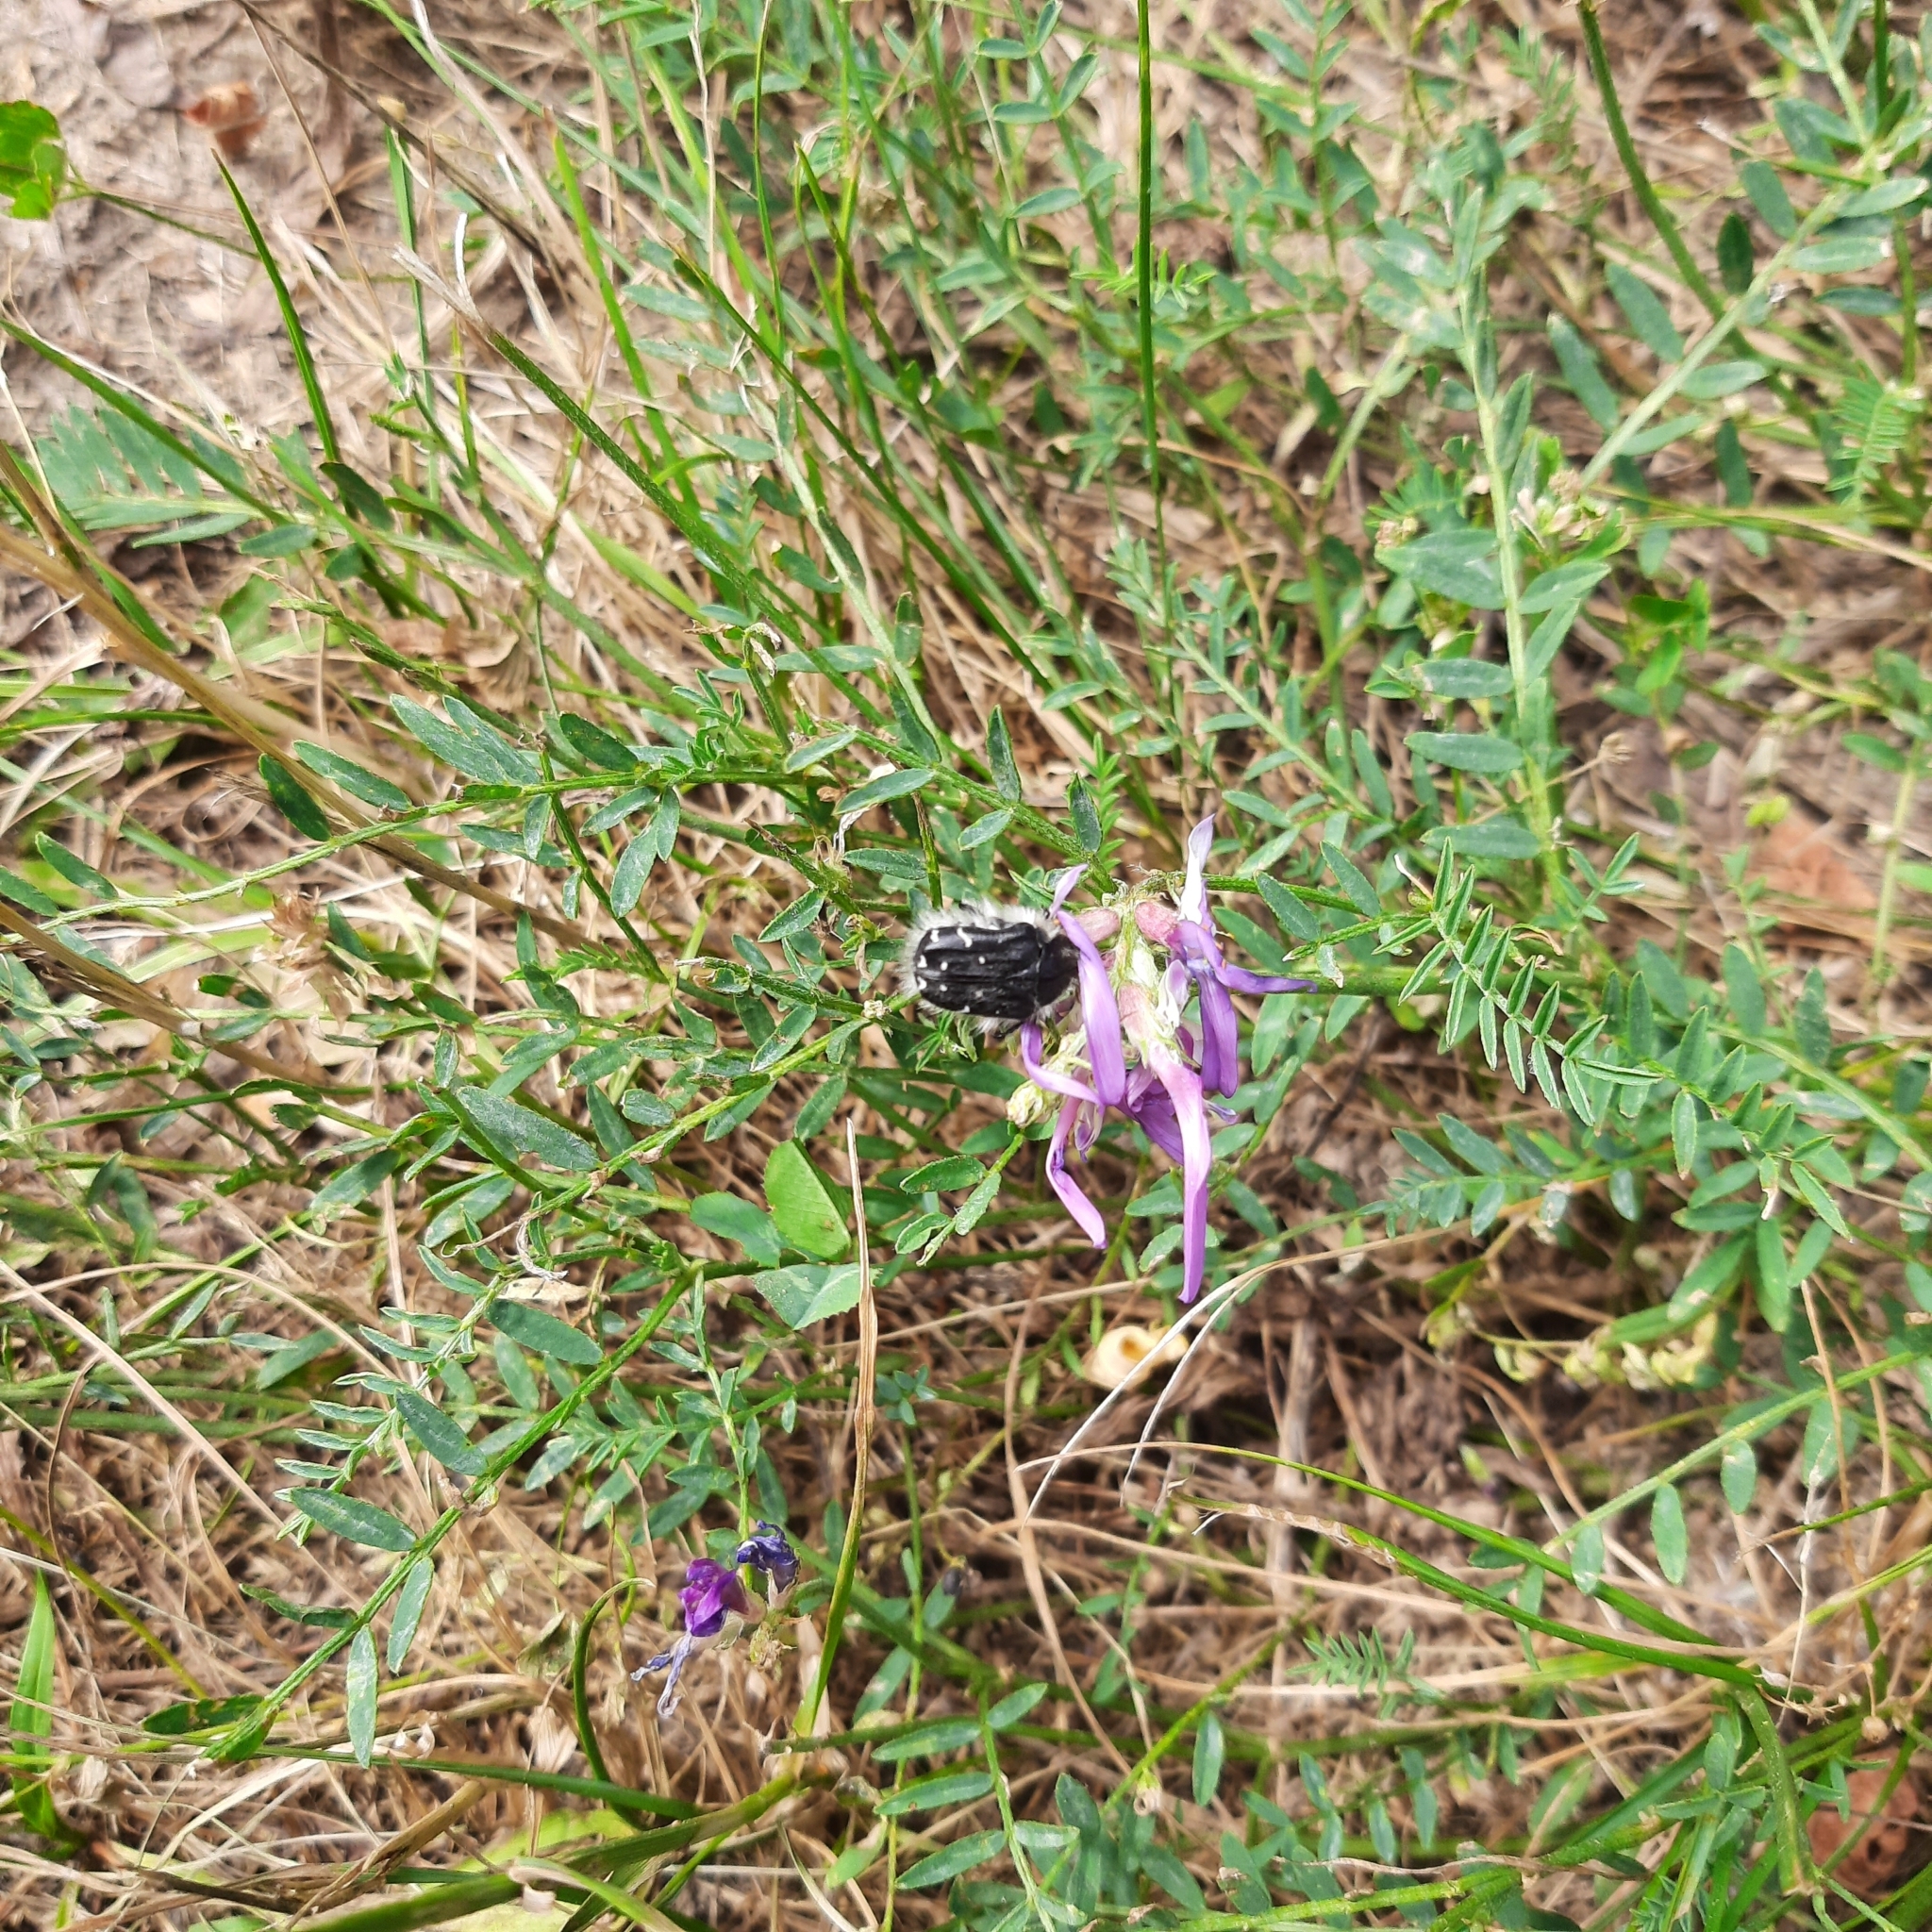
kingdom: Animalia
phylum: Arthropoda
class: Insecta
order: Coleoptera
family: Scarabaeidae
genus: Tropinota
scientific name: Tropinota hirta
